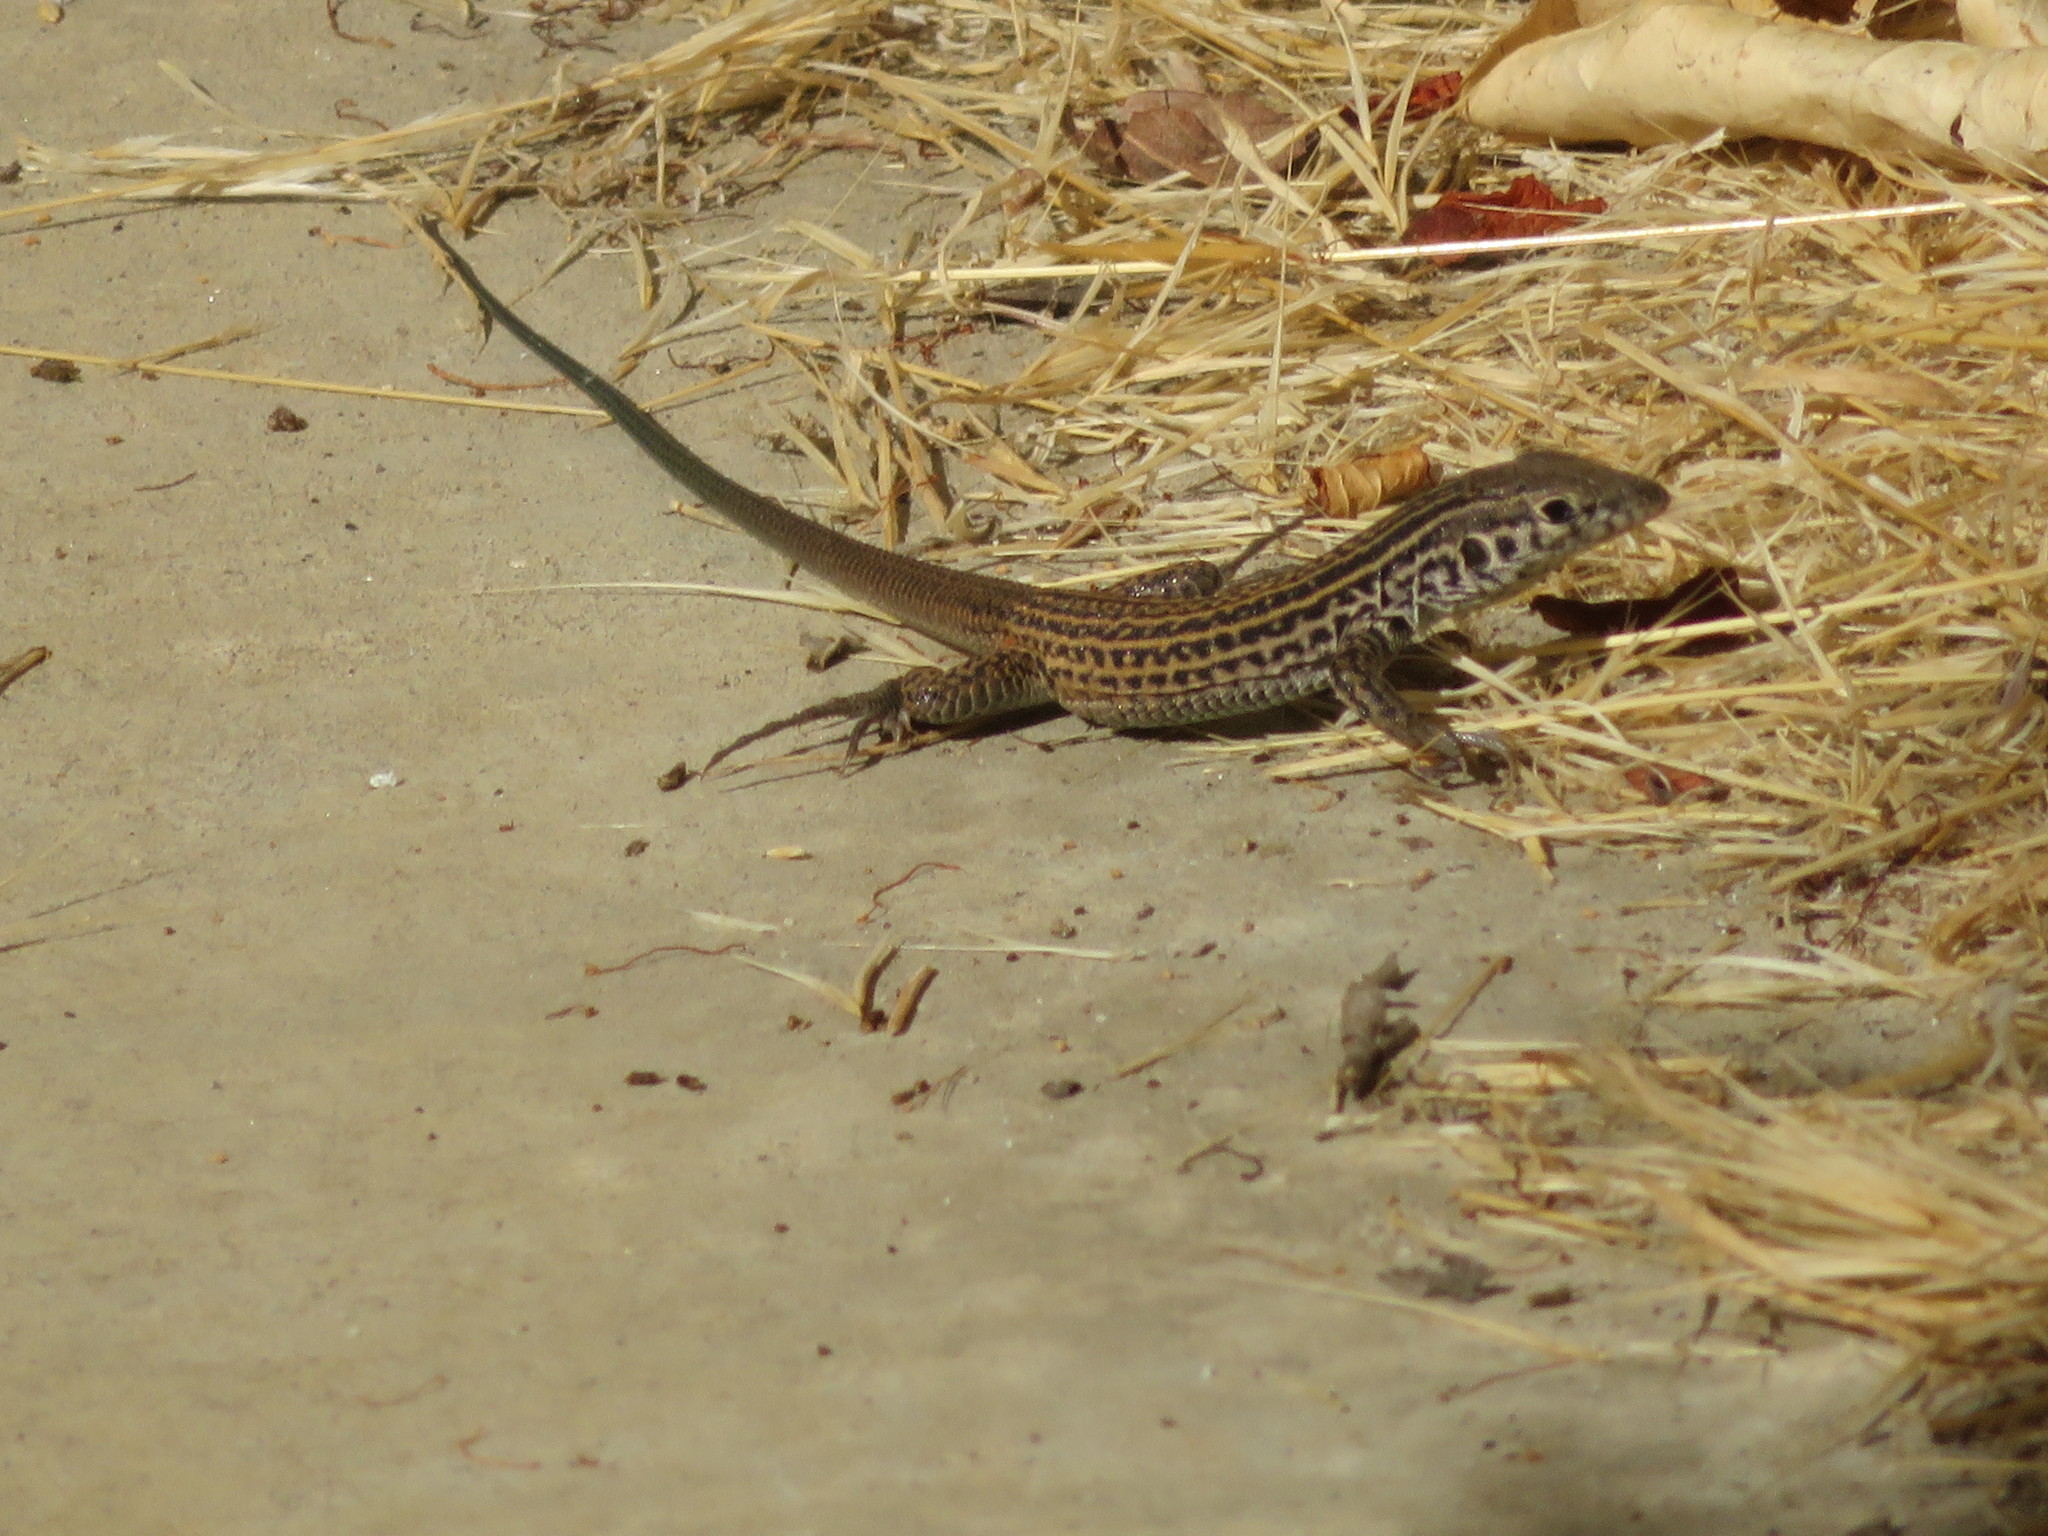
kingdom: Animalia
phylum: Chordata
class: Squamata
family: Teiidae
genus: Aspidoscelis
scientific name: Aspidoscelis tigris
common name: Tiger whiptail
